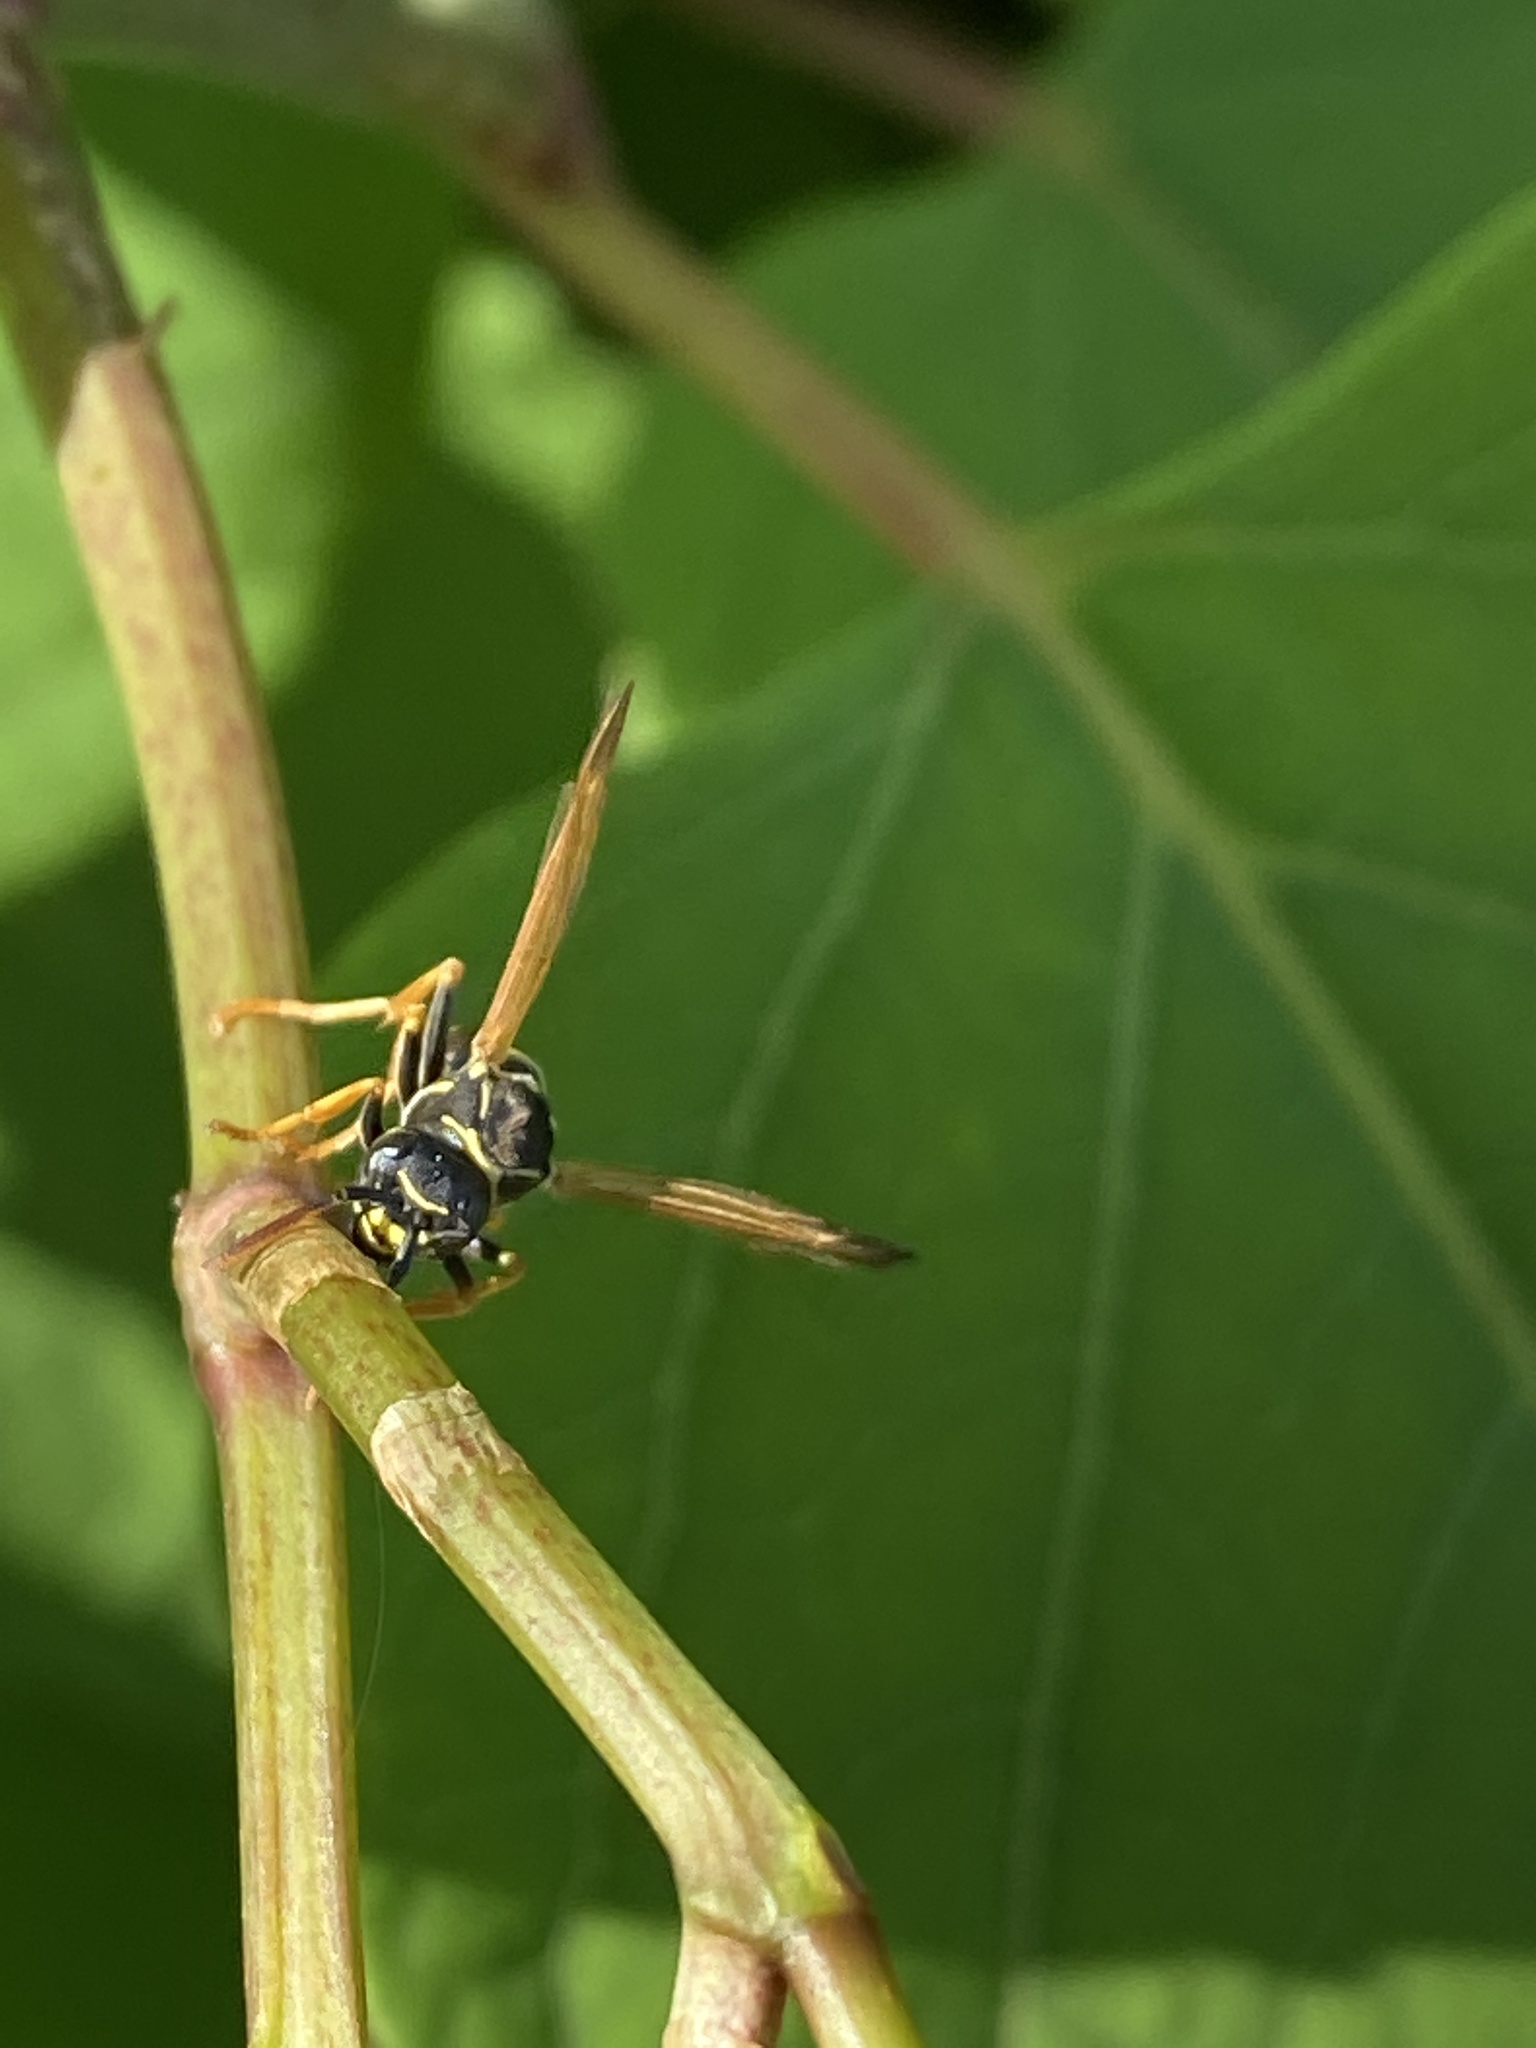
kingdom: Animalia
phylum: Arthropoda
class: Insecta
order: Hymenoptera
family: Eumenidae
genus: Polistes
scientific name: Polistes dominula
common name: Paper wasp
